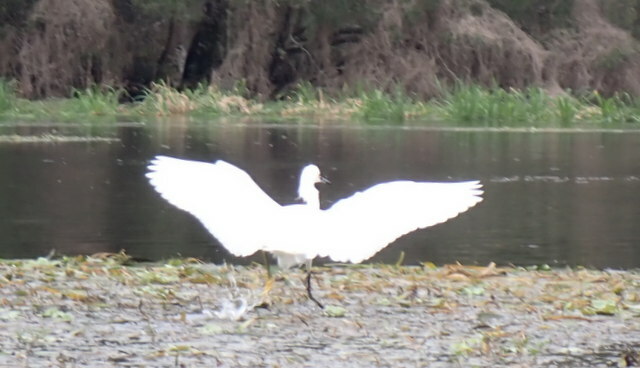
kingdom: Animalia
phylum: Chordata
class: Aves
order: Pelecaniformes
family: Ardeidae
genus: Egretta
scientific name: Egretta thula
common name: Snowy egret
